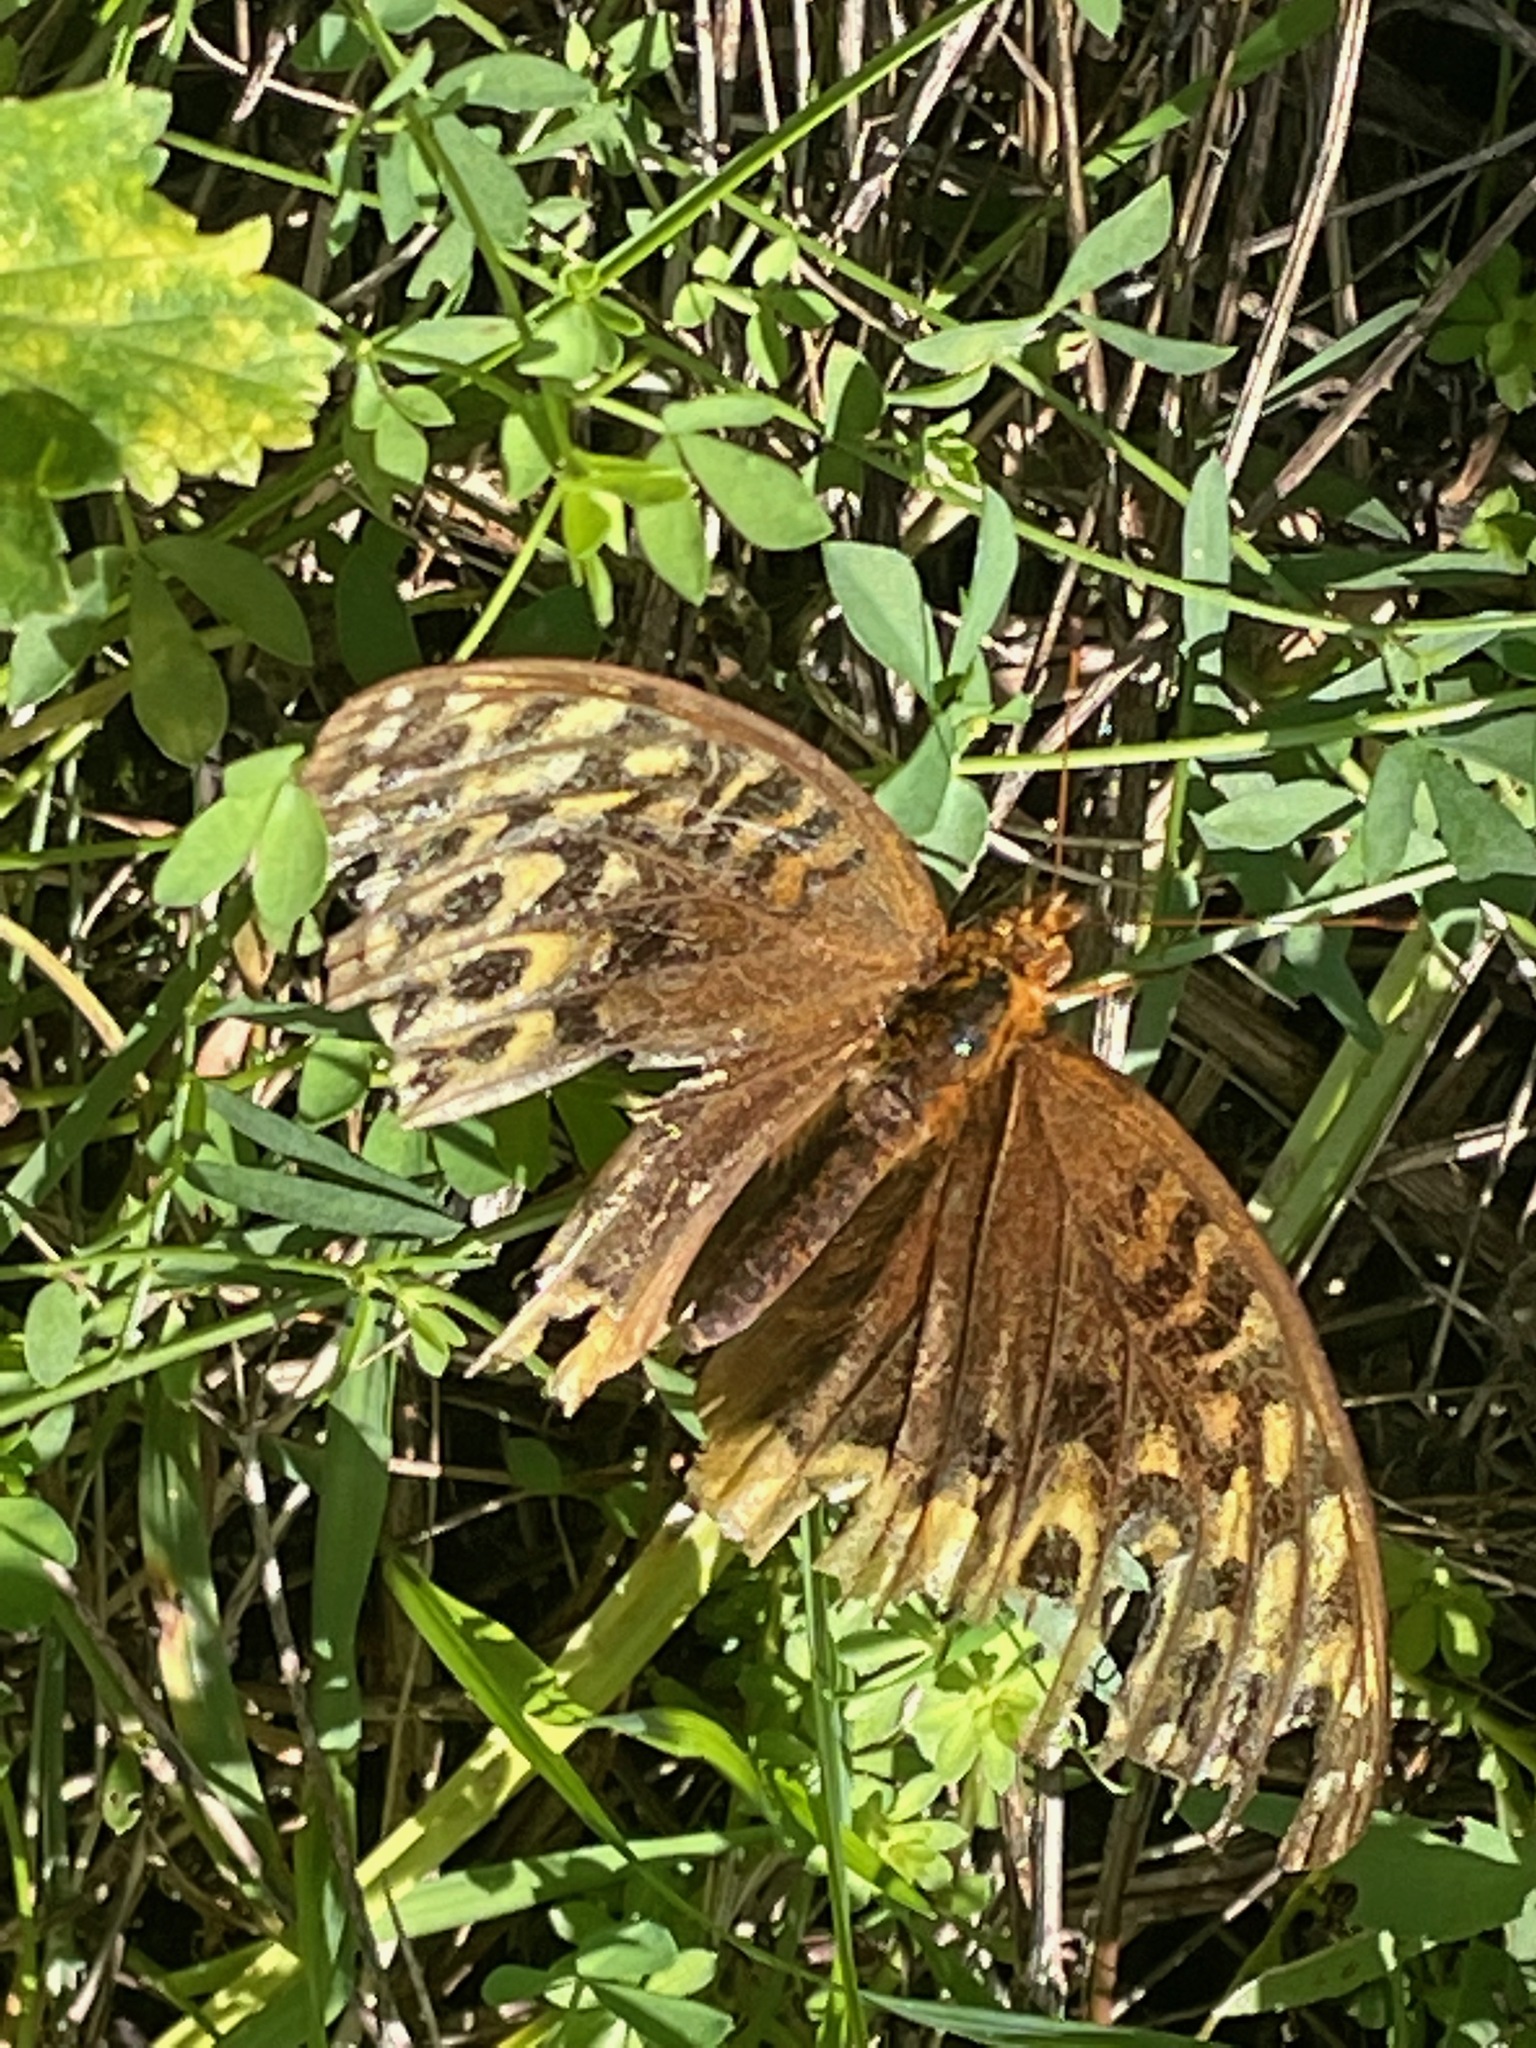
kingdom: Animalia
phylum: Arthropoda
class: Insecta
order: Lepidoptera
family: Nymphalidae
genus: Speyeria
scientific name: Speyeria cybele
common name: Great spangled fritillary
